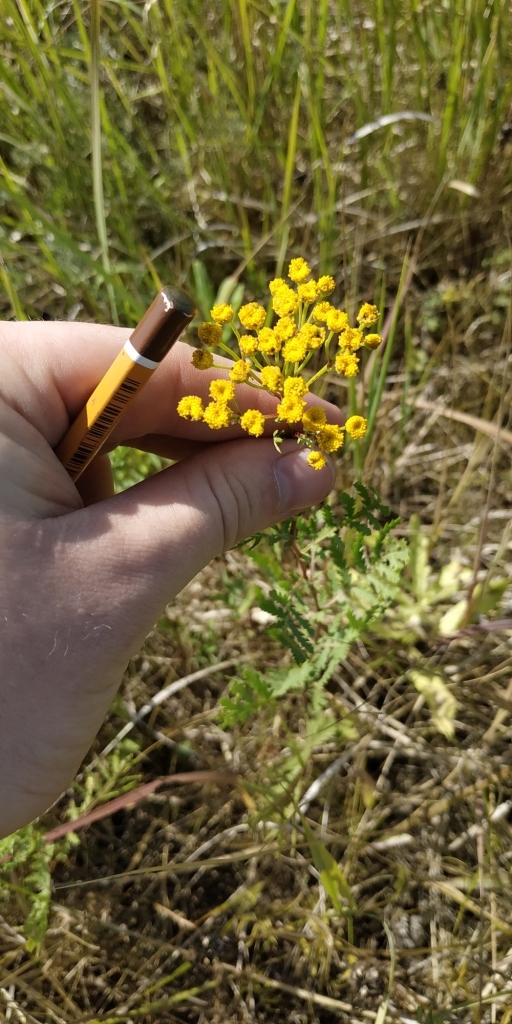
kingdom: Plantae
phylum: Tracheophyta
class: Magnoliopsida
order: Asterales
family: Asteraceae
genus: Tanacetum
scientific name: Tanacetum vulgare
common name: Common tansy
